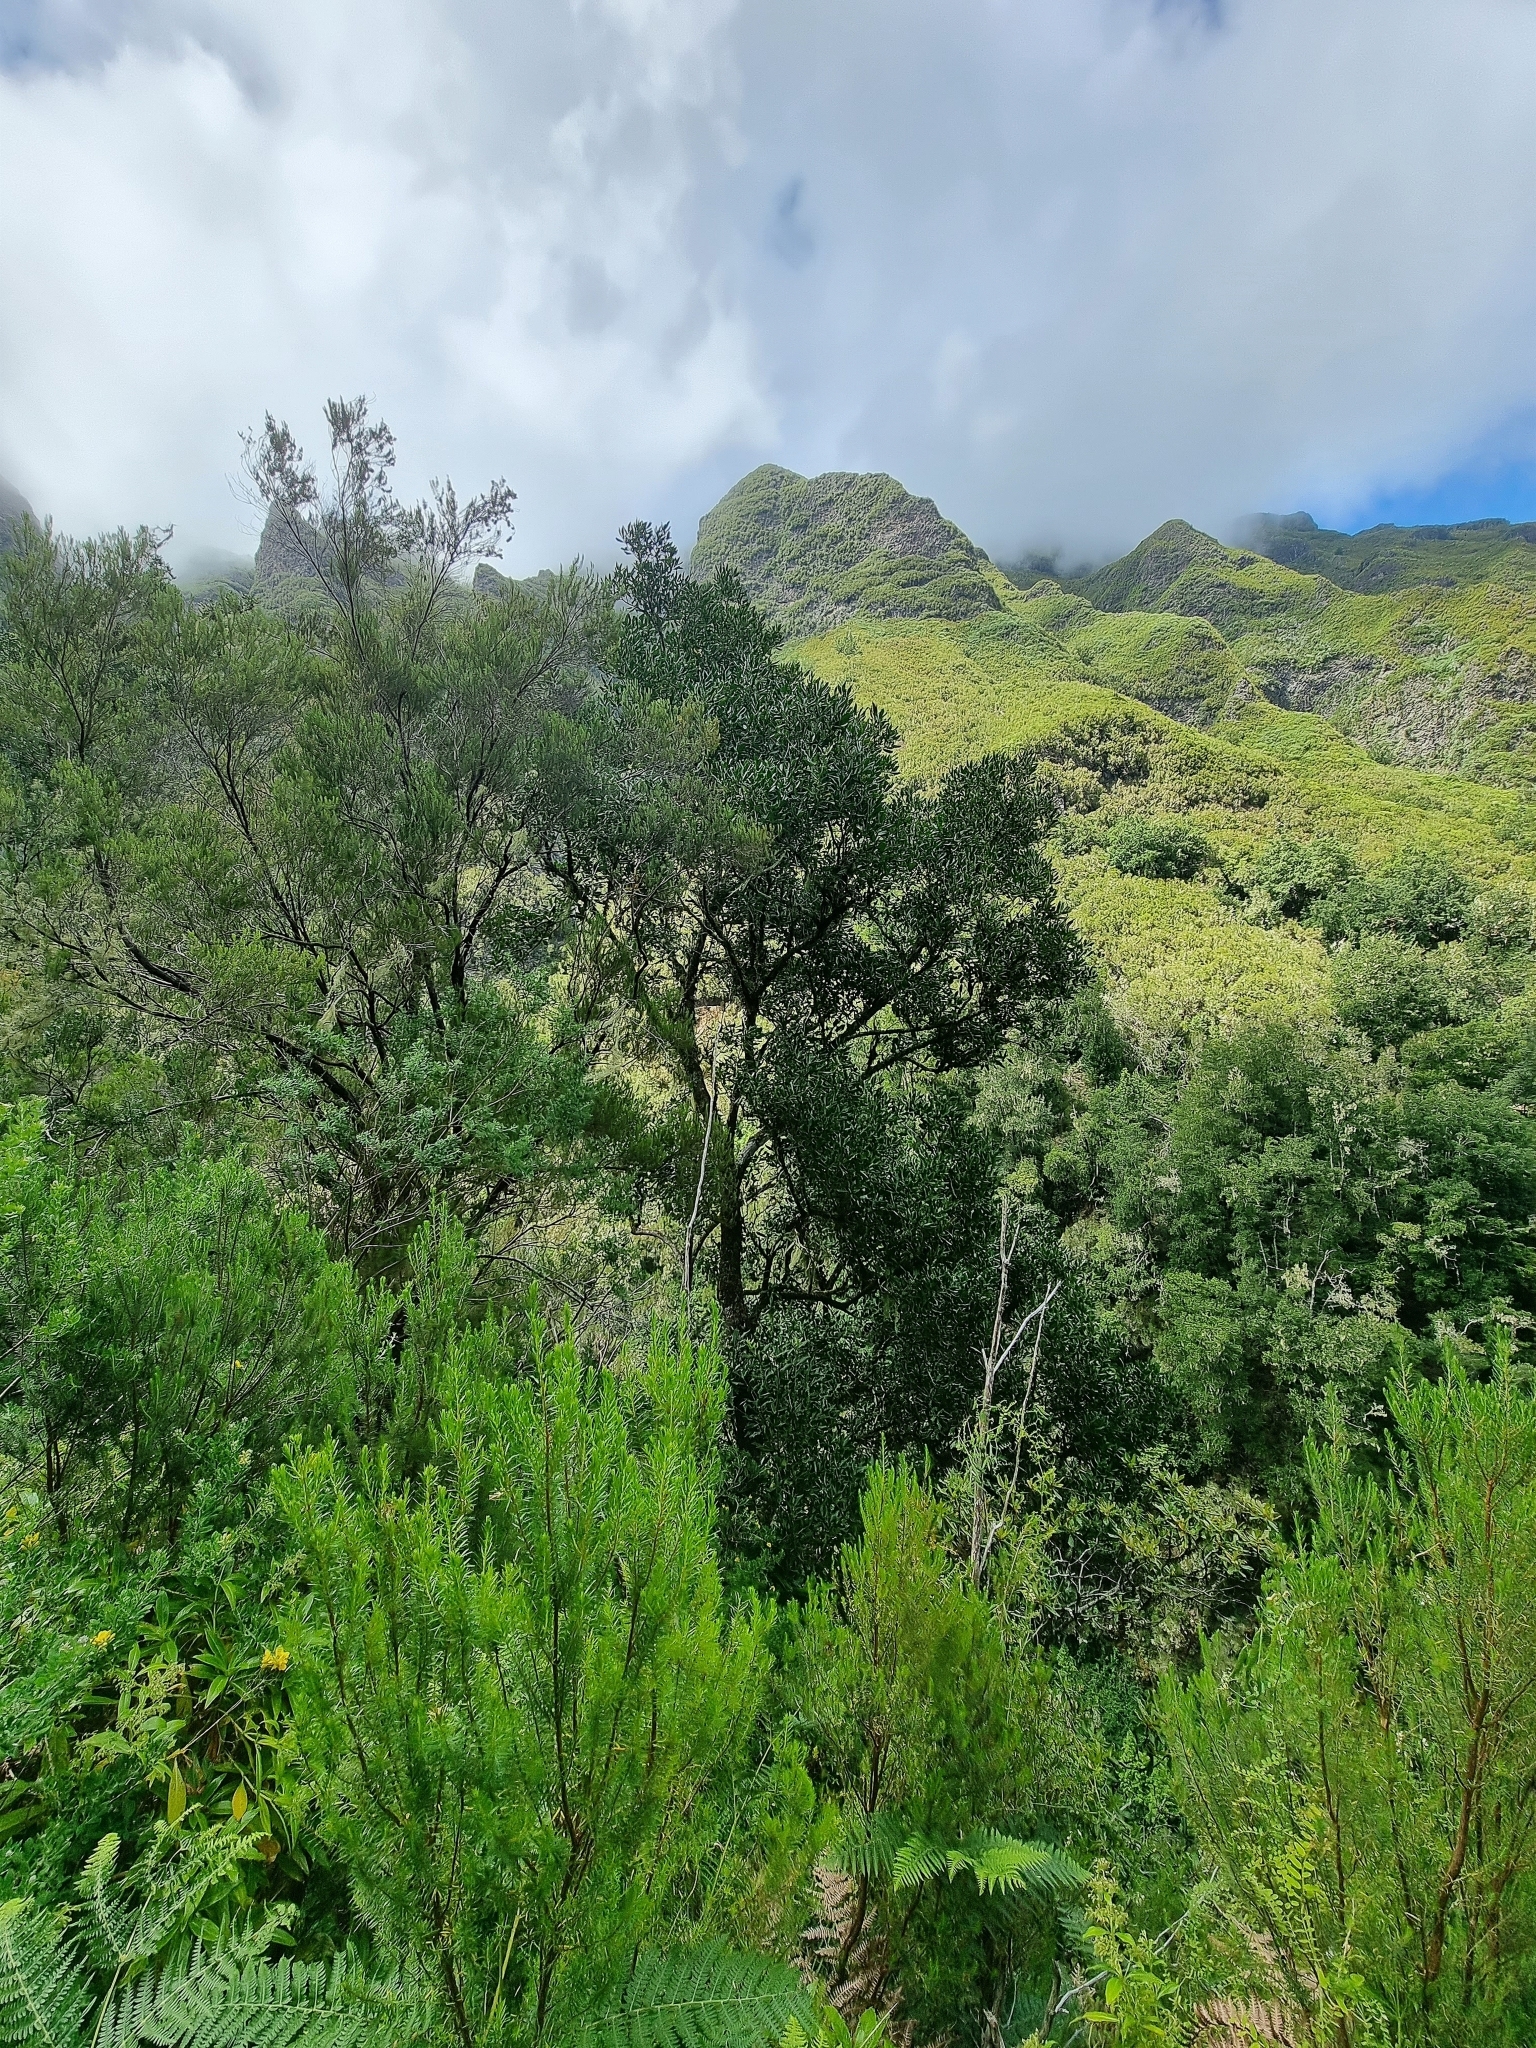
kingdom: Plantae
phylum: Tracheophyta
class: Magnoliopsida
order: Lamiales
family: Oleaceae
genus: Picconia
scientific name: Picconia excelsa
